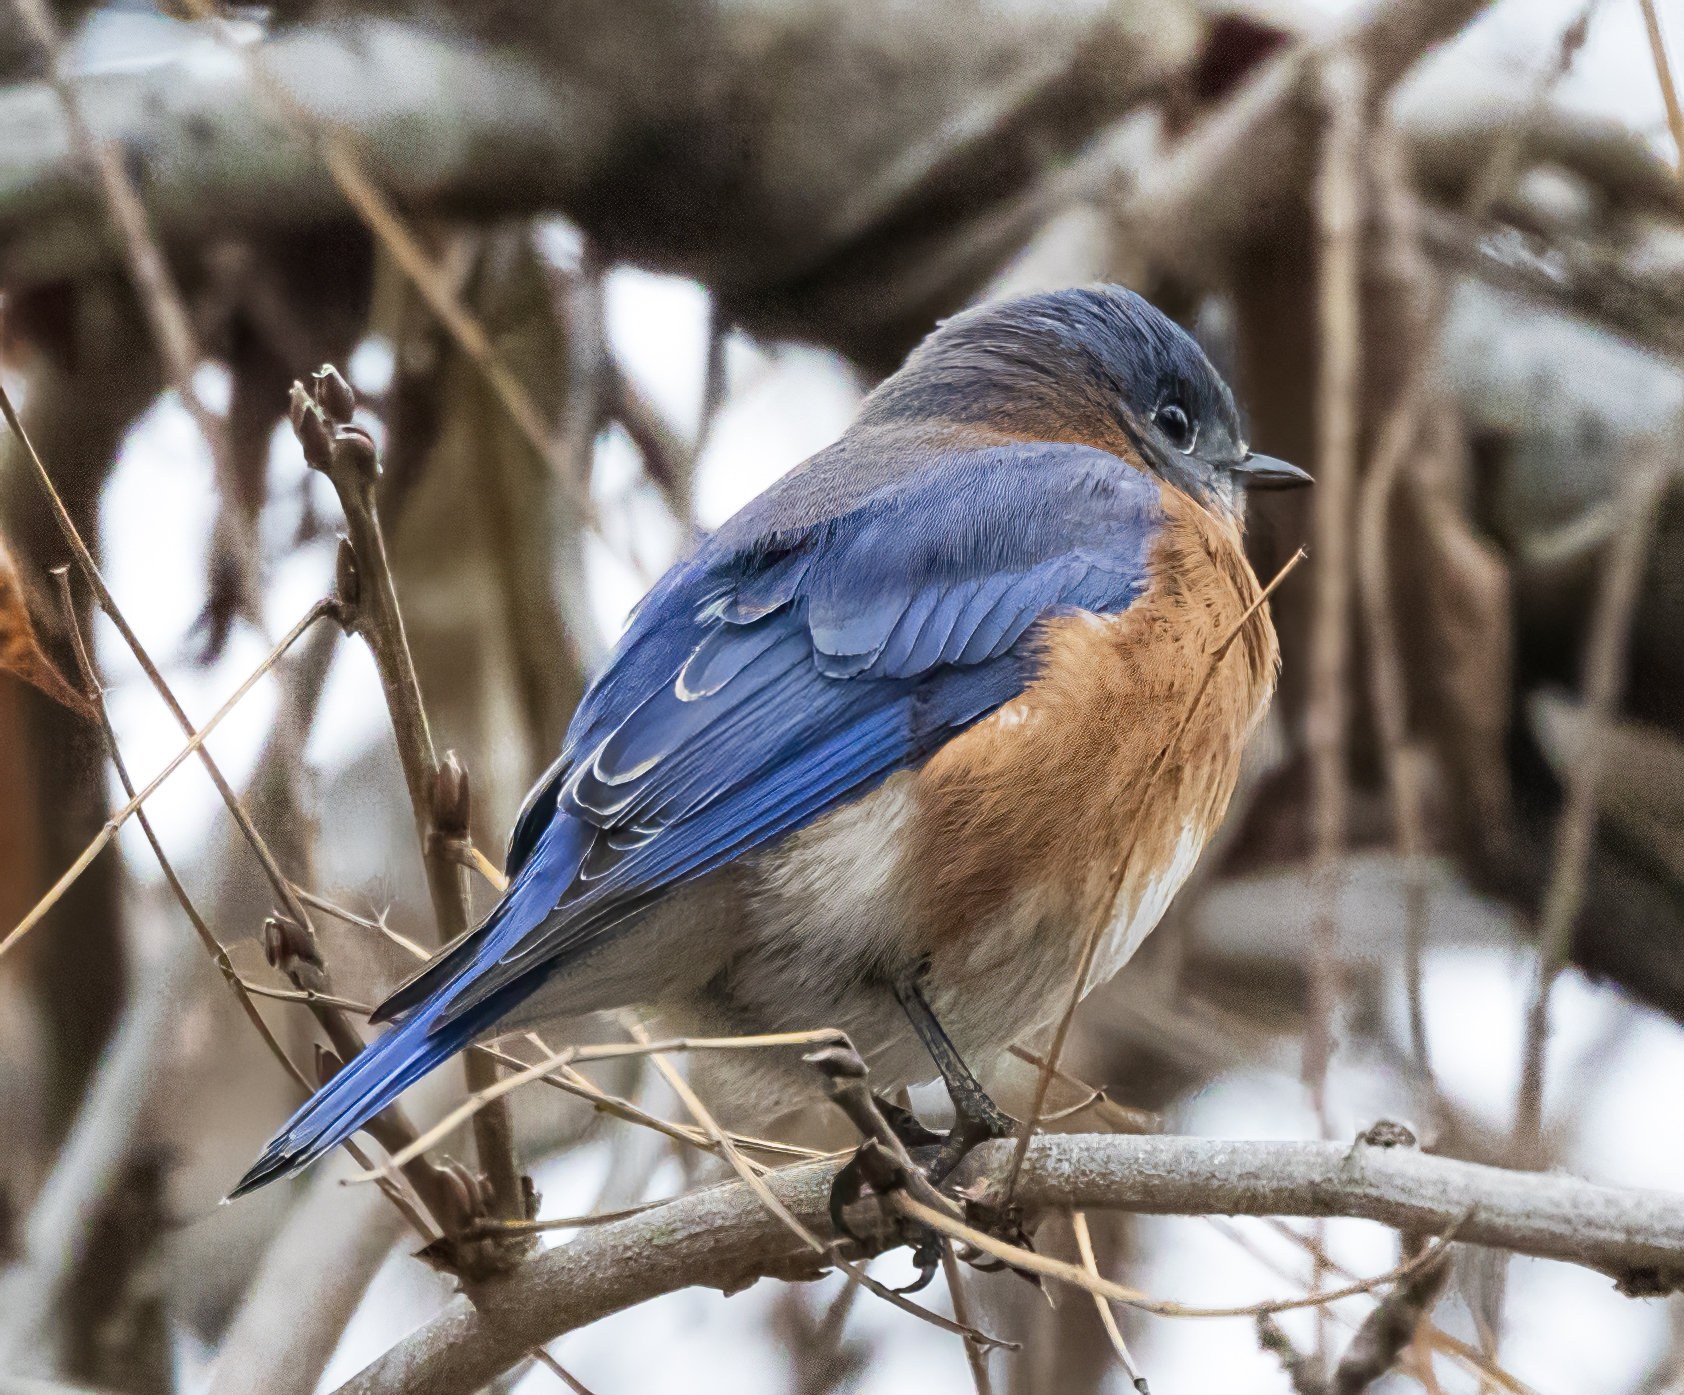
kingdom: Animalia
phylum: Chordata
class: Aves
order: Passeriformes
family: Turdidae
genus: Sialia
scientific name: Sialia sialis
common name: Eastern bluebird
